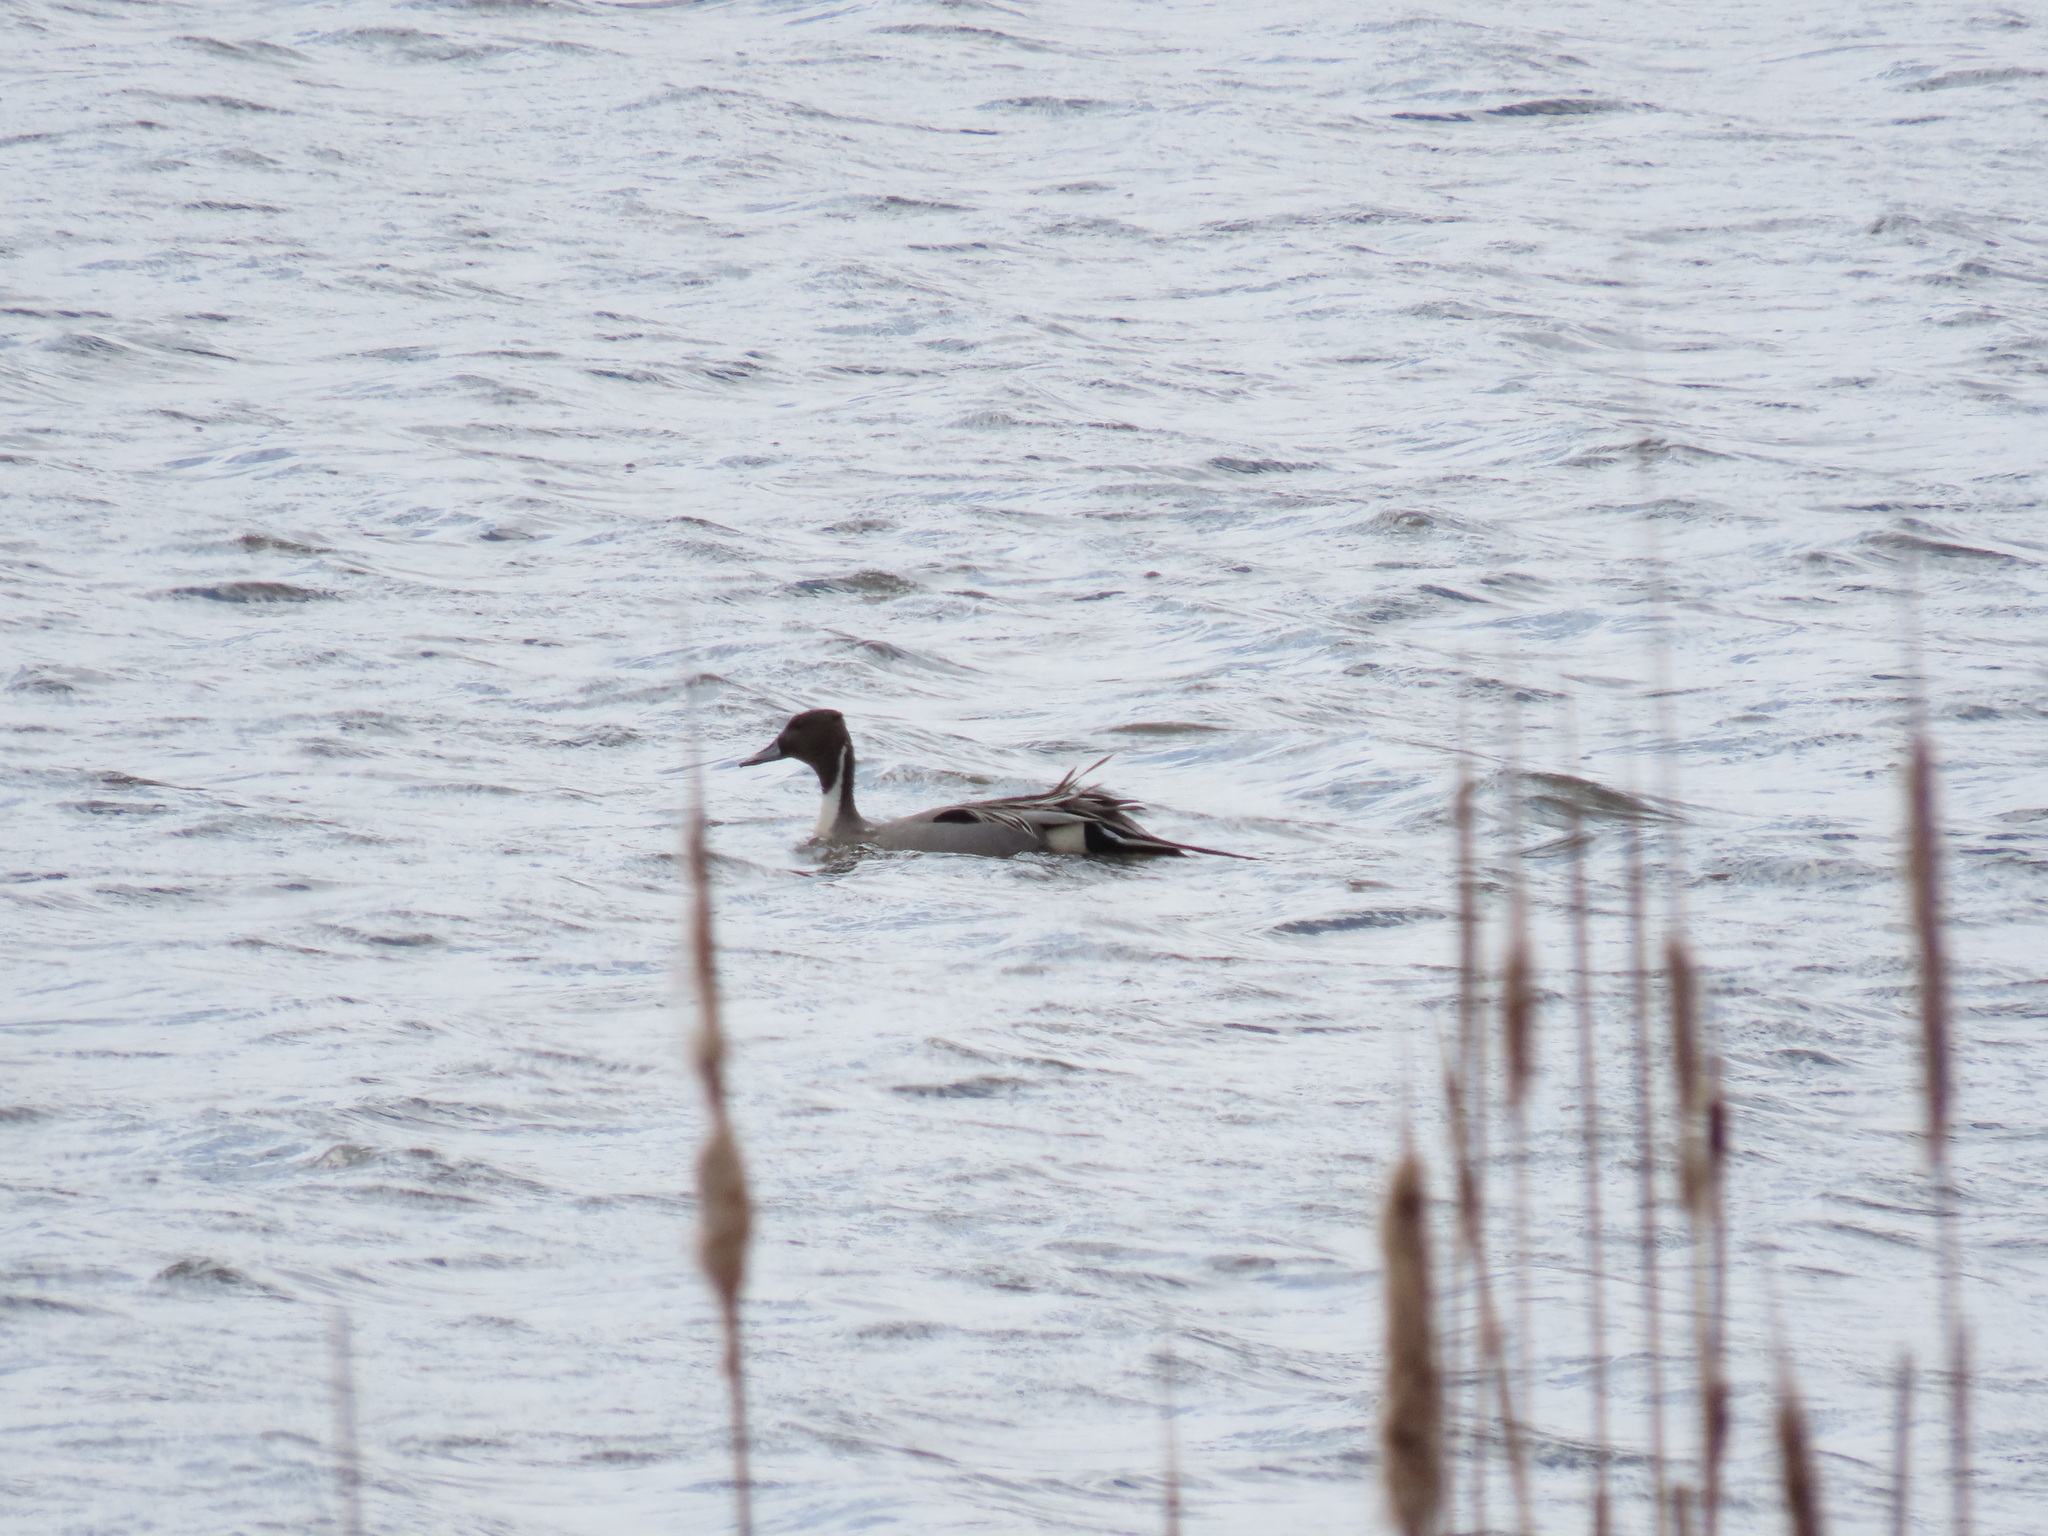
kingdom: Animalia
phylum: Chordata
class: Aves
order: Anseriformes
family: Anatidae
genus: Anas
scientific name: Anas acuta
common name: Northern pintail
